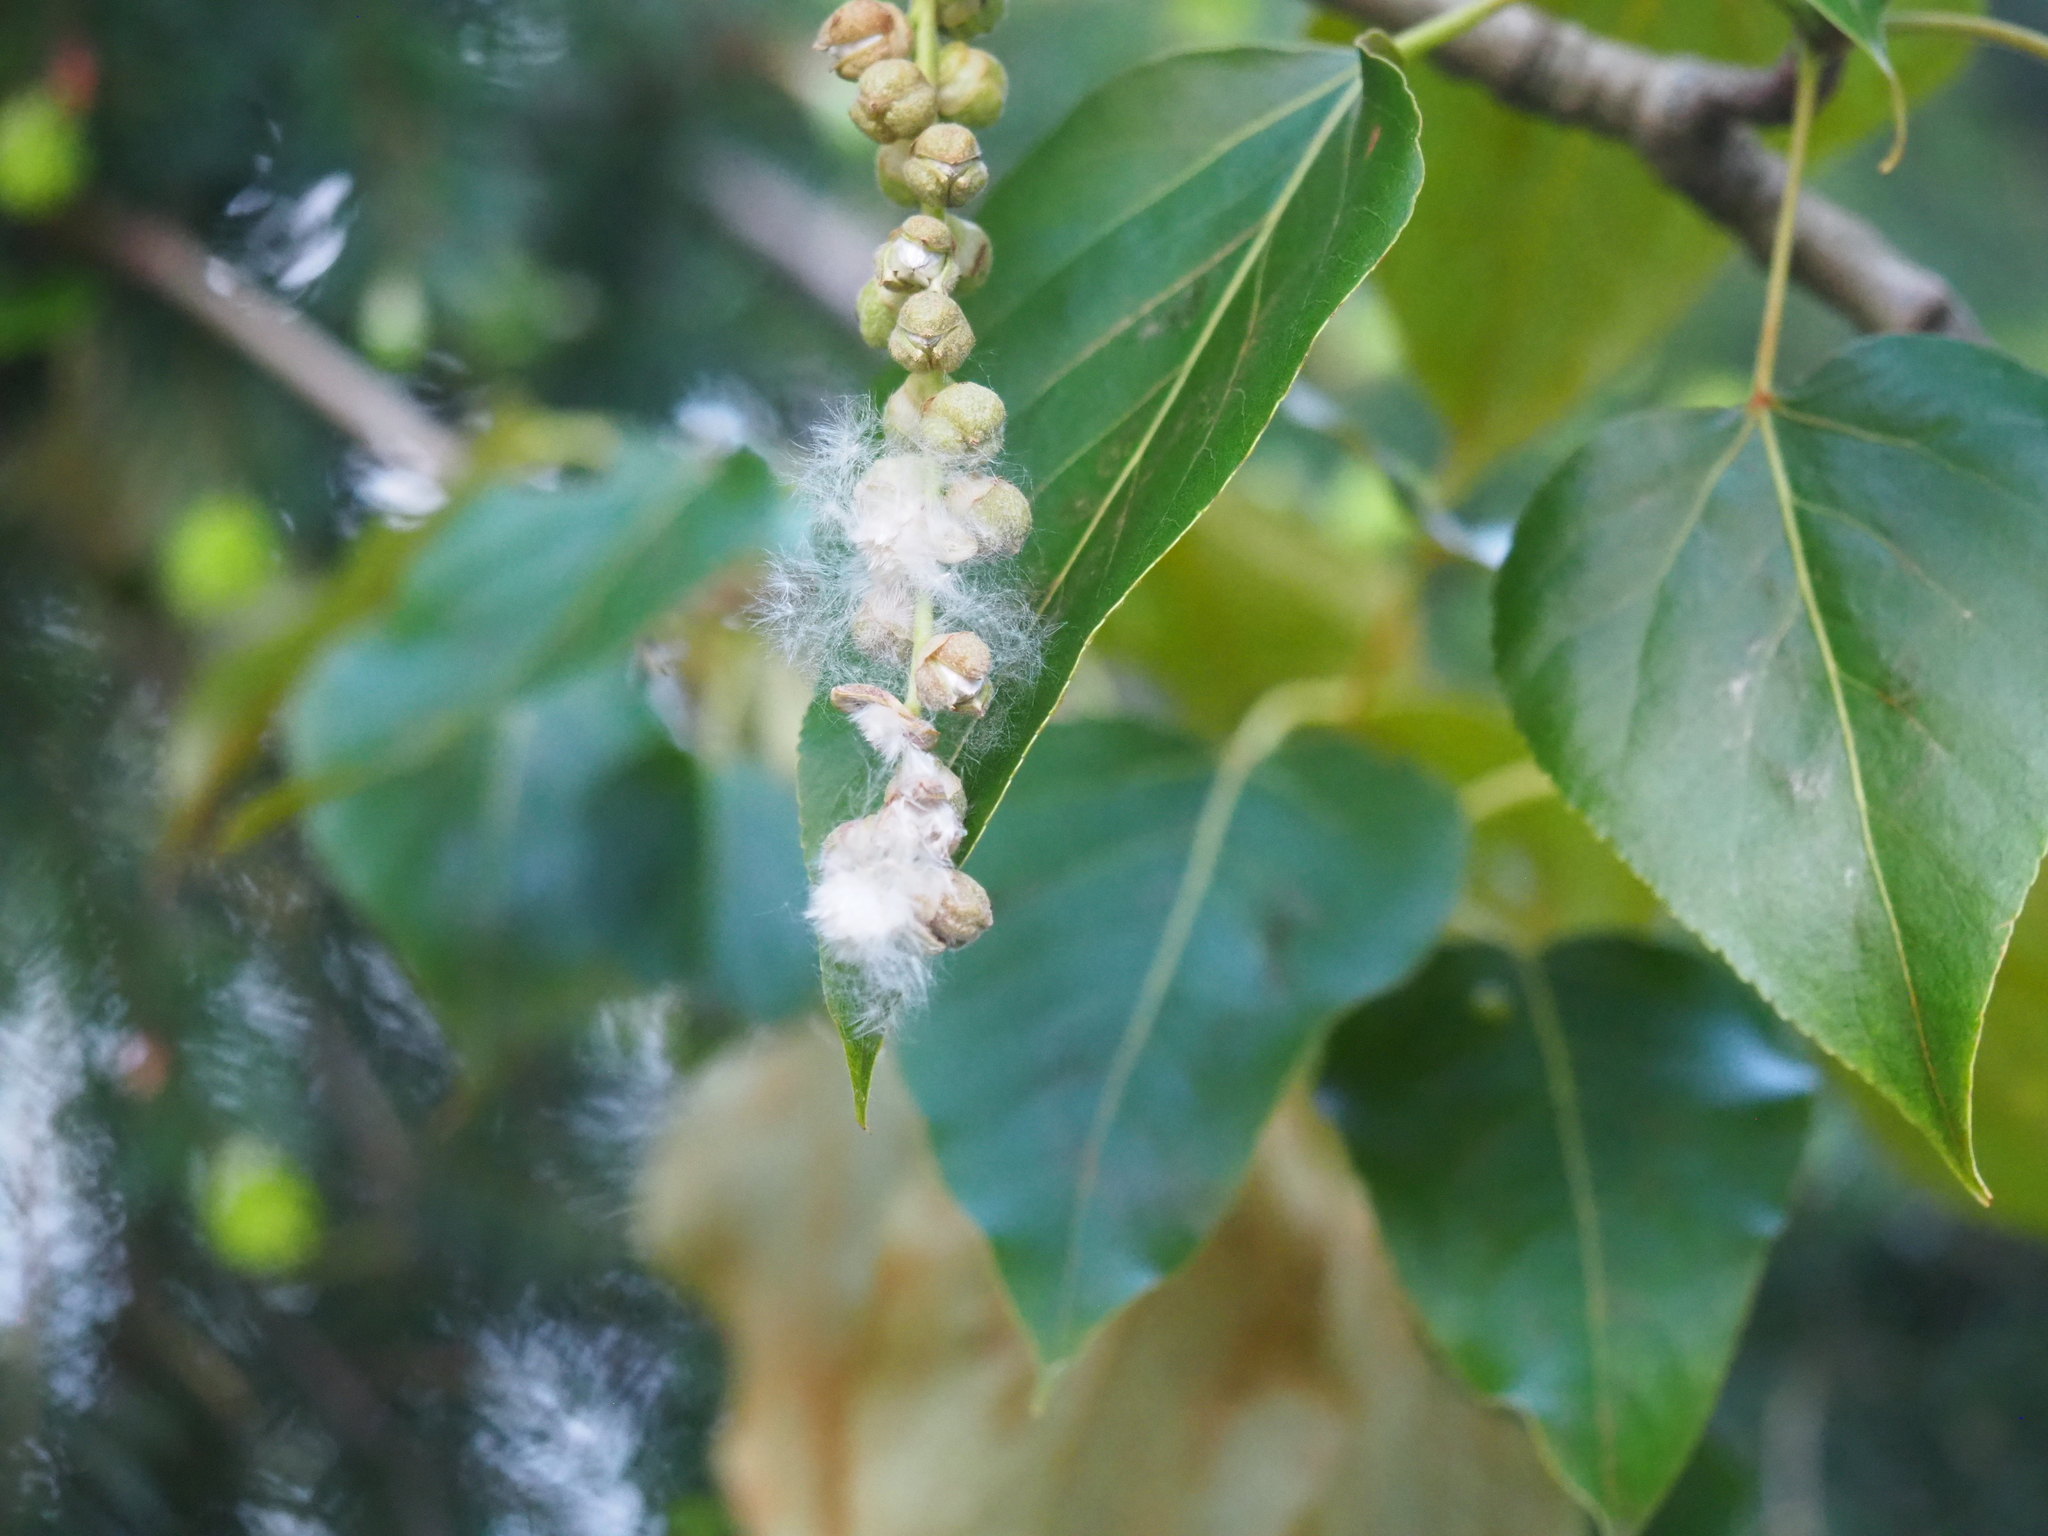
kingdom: Plantae
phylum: Tracheophyta
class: Magnoliopsida
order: Malpighiales
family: Salicaceae
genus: Populus
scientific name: Populus trichocarpa
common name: Black cottonwood
